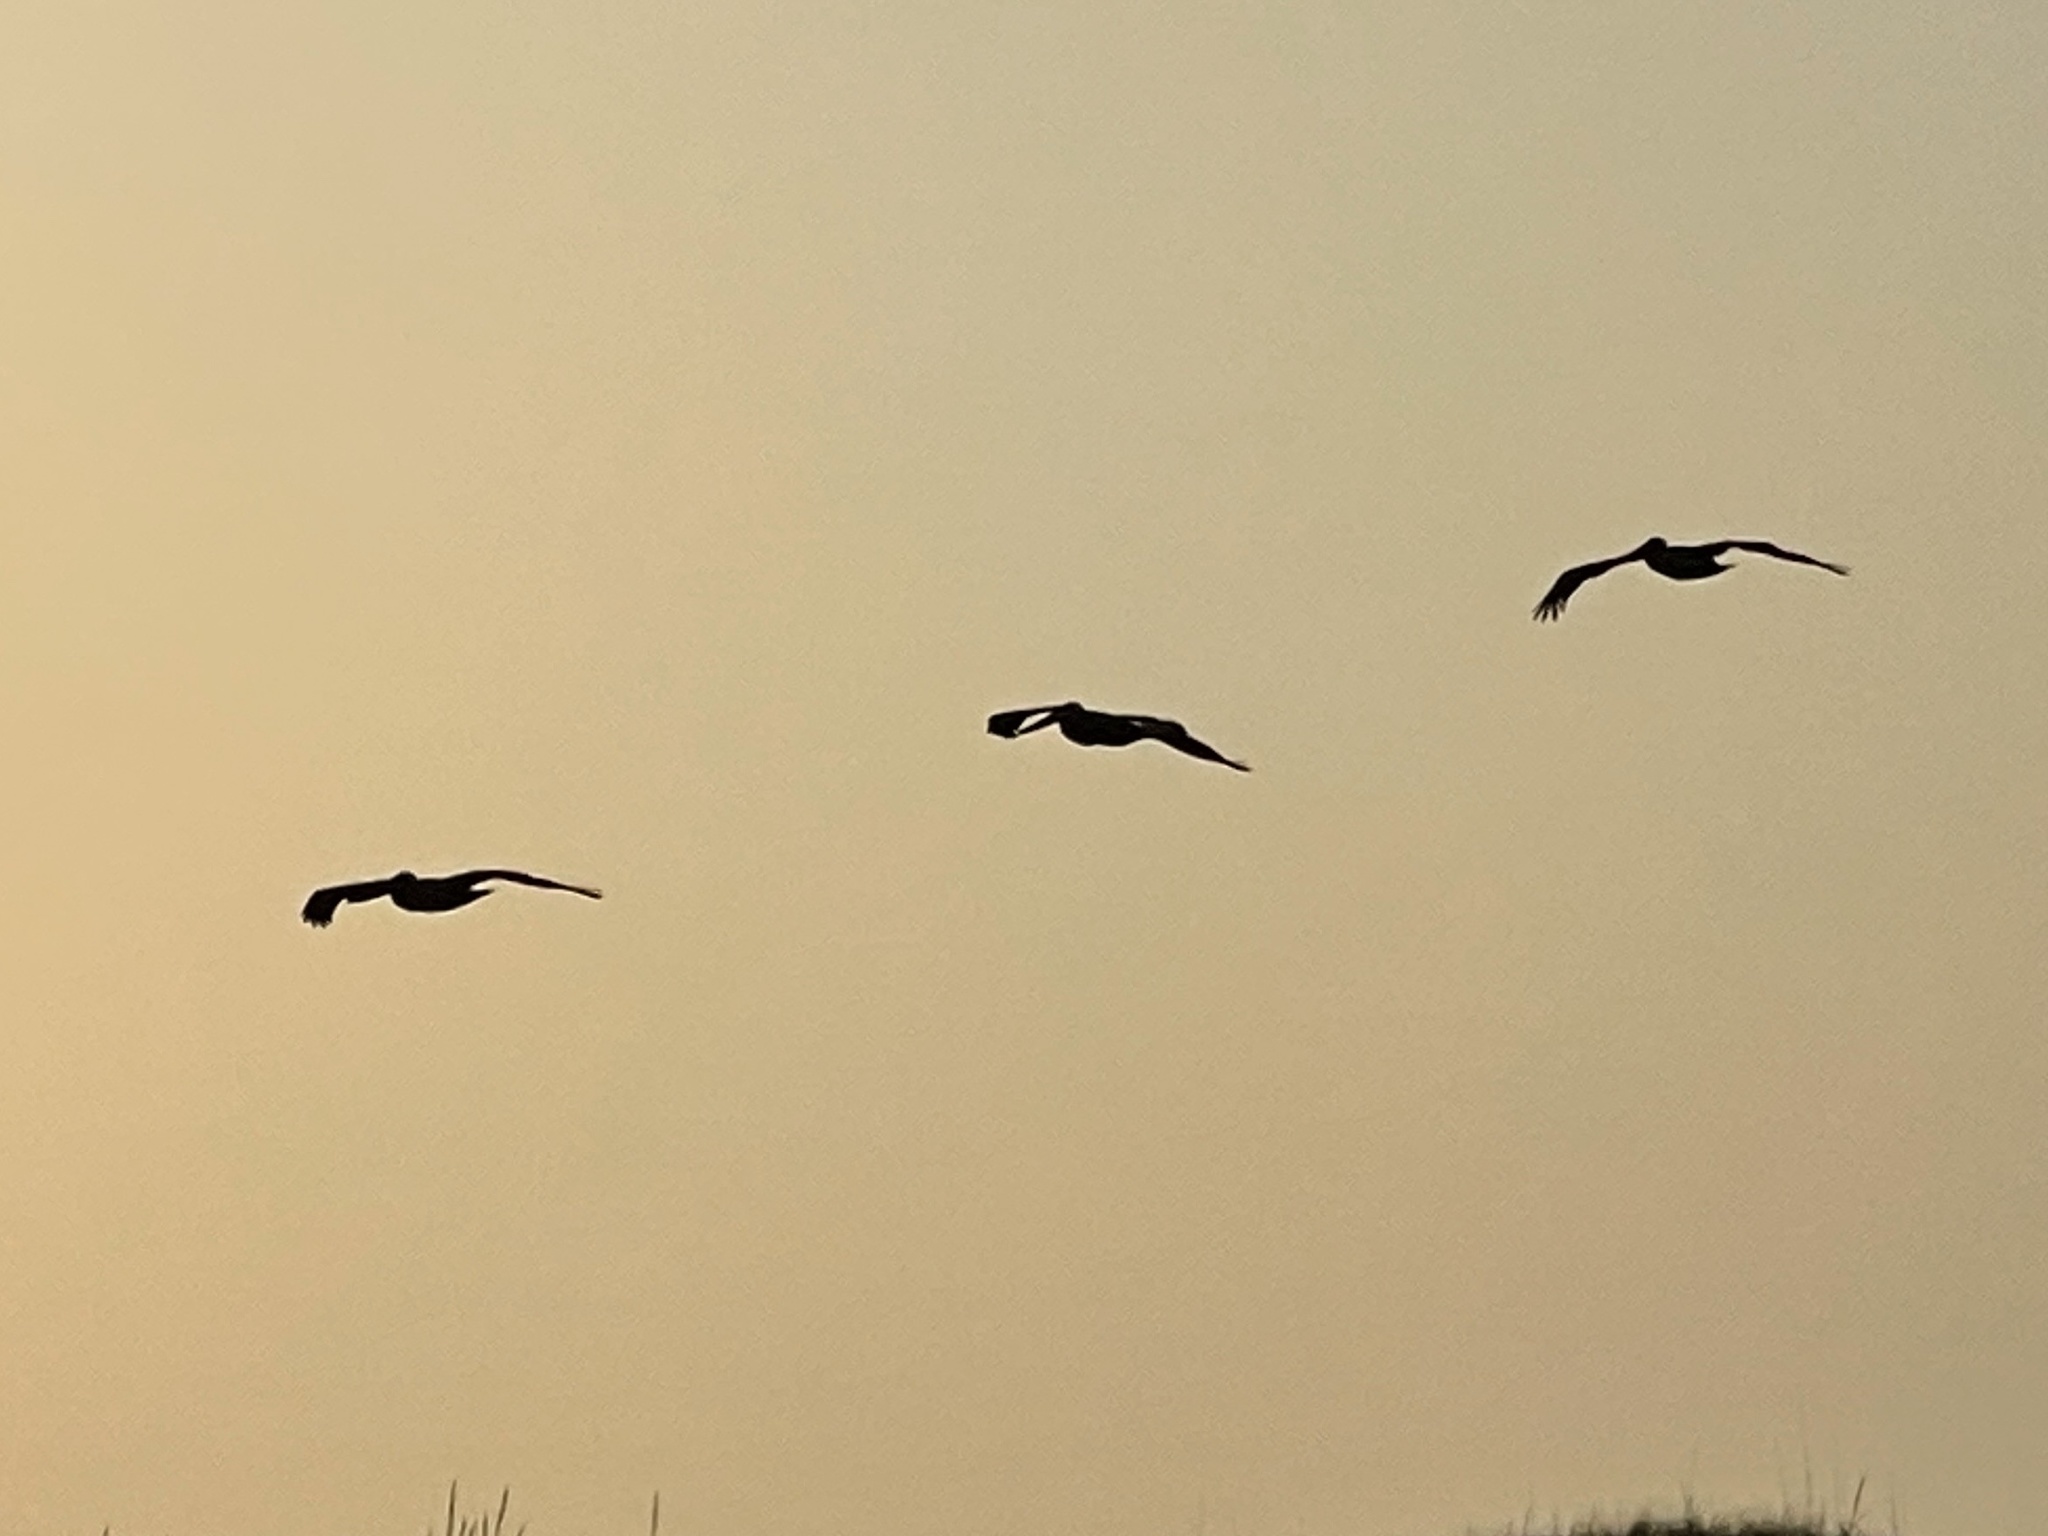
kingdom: Animalia
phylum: Chordata
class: Aves
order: Pelecaniformes
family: Pelecanidae
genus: Pelecanus
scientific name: Pelecanus occidentalis
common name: Brown pelican
